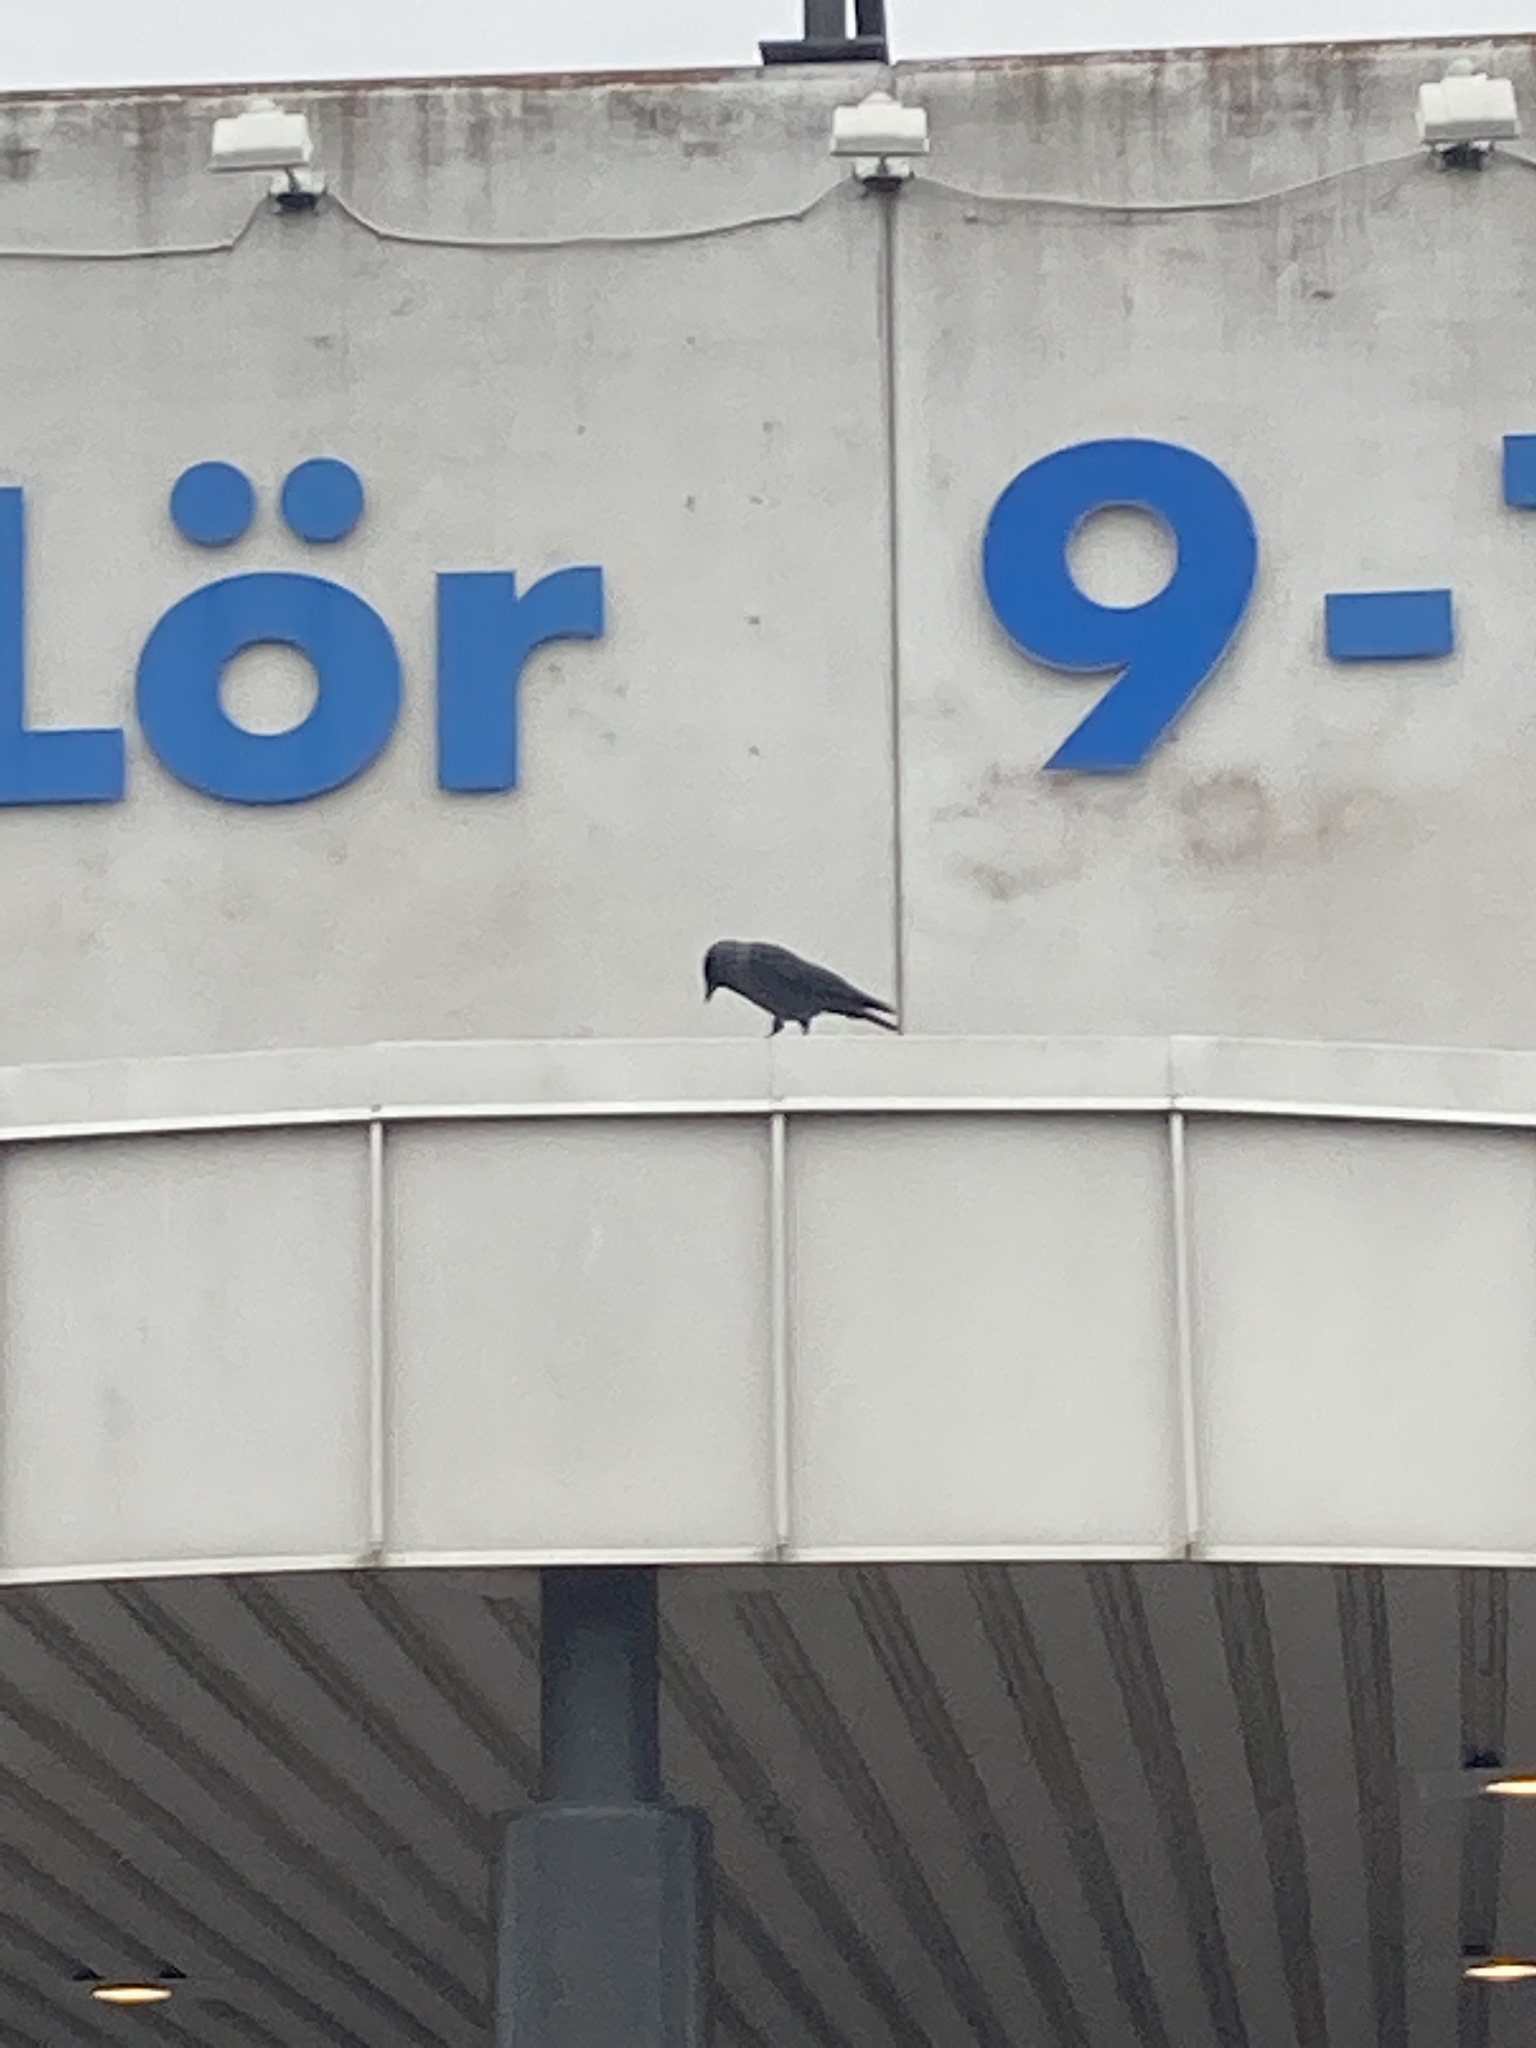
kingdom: Animalia
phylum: Chordata
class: Aves
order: Passeriformes
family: Corvidae
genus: Coloeus
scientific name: Coloeus monedula
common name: Western jackdaw
